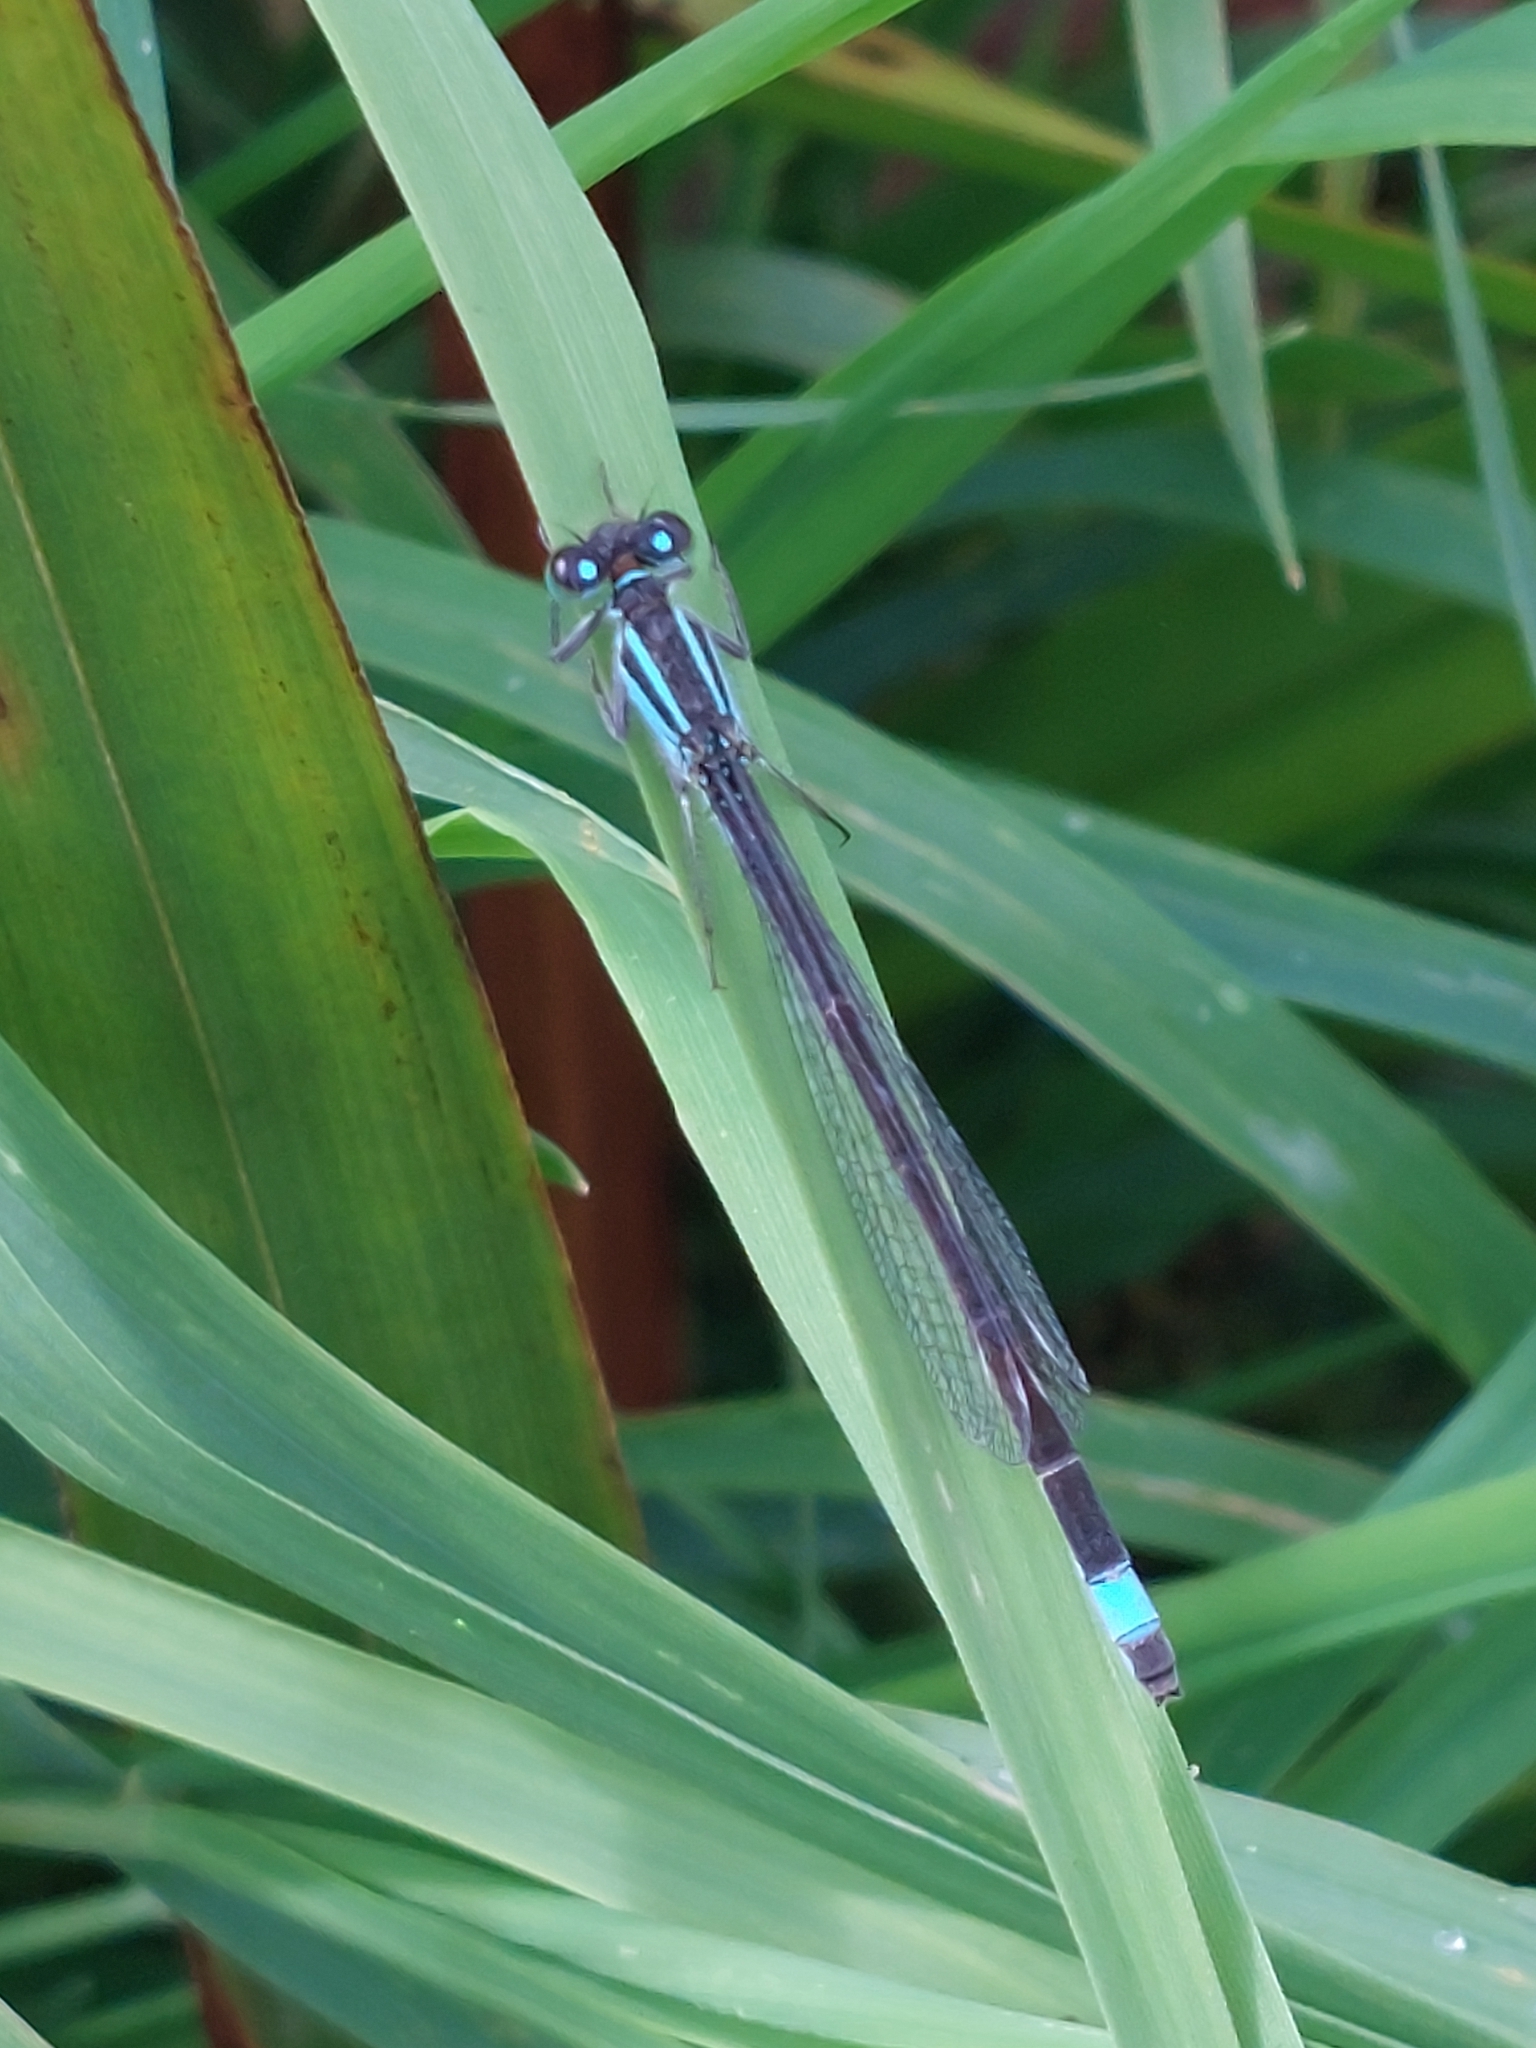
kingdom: Animalia
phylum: Arthropoda
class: Insecta
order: Odonata
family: Coenagrionidae
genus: Ischnura
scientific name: Ischnura elegans
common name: Blue-tailed damselfly
